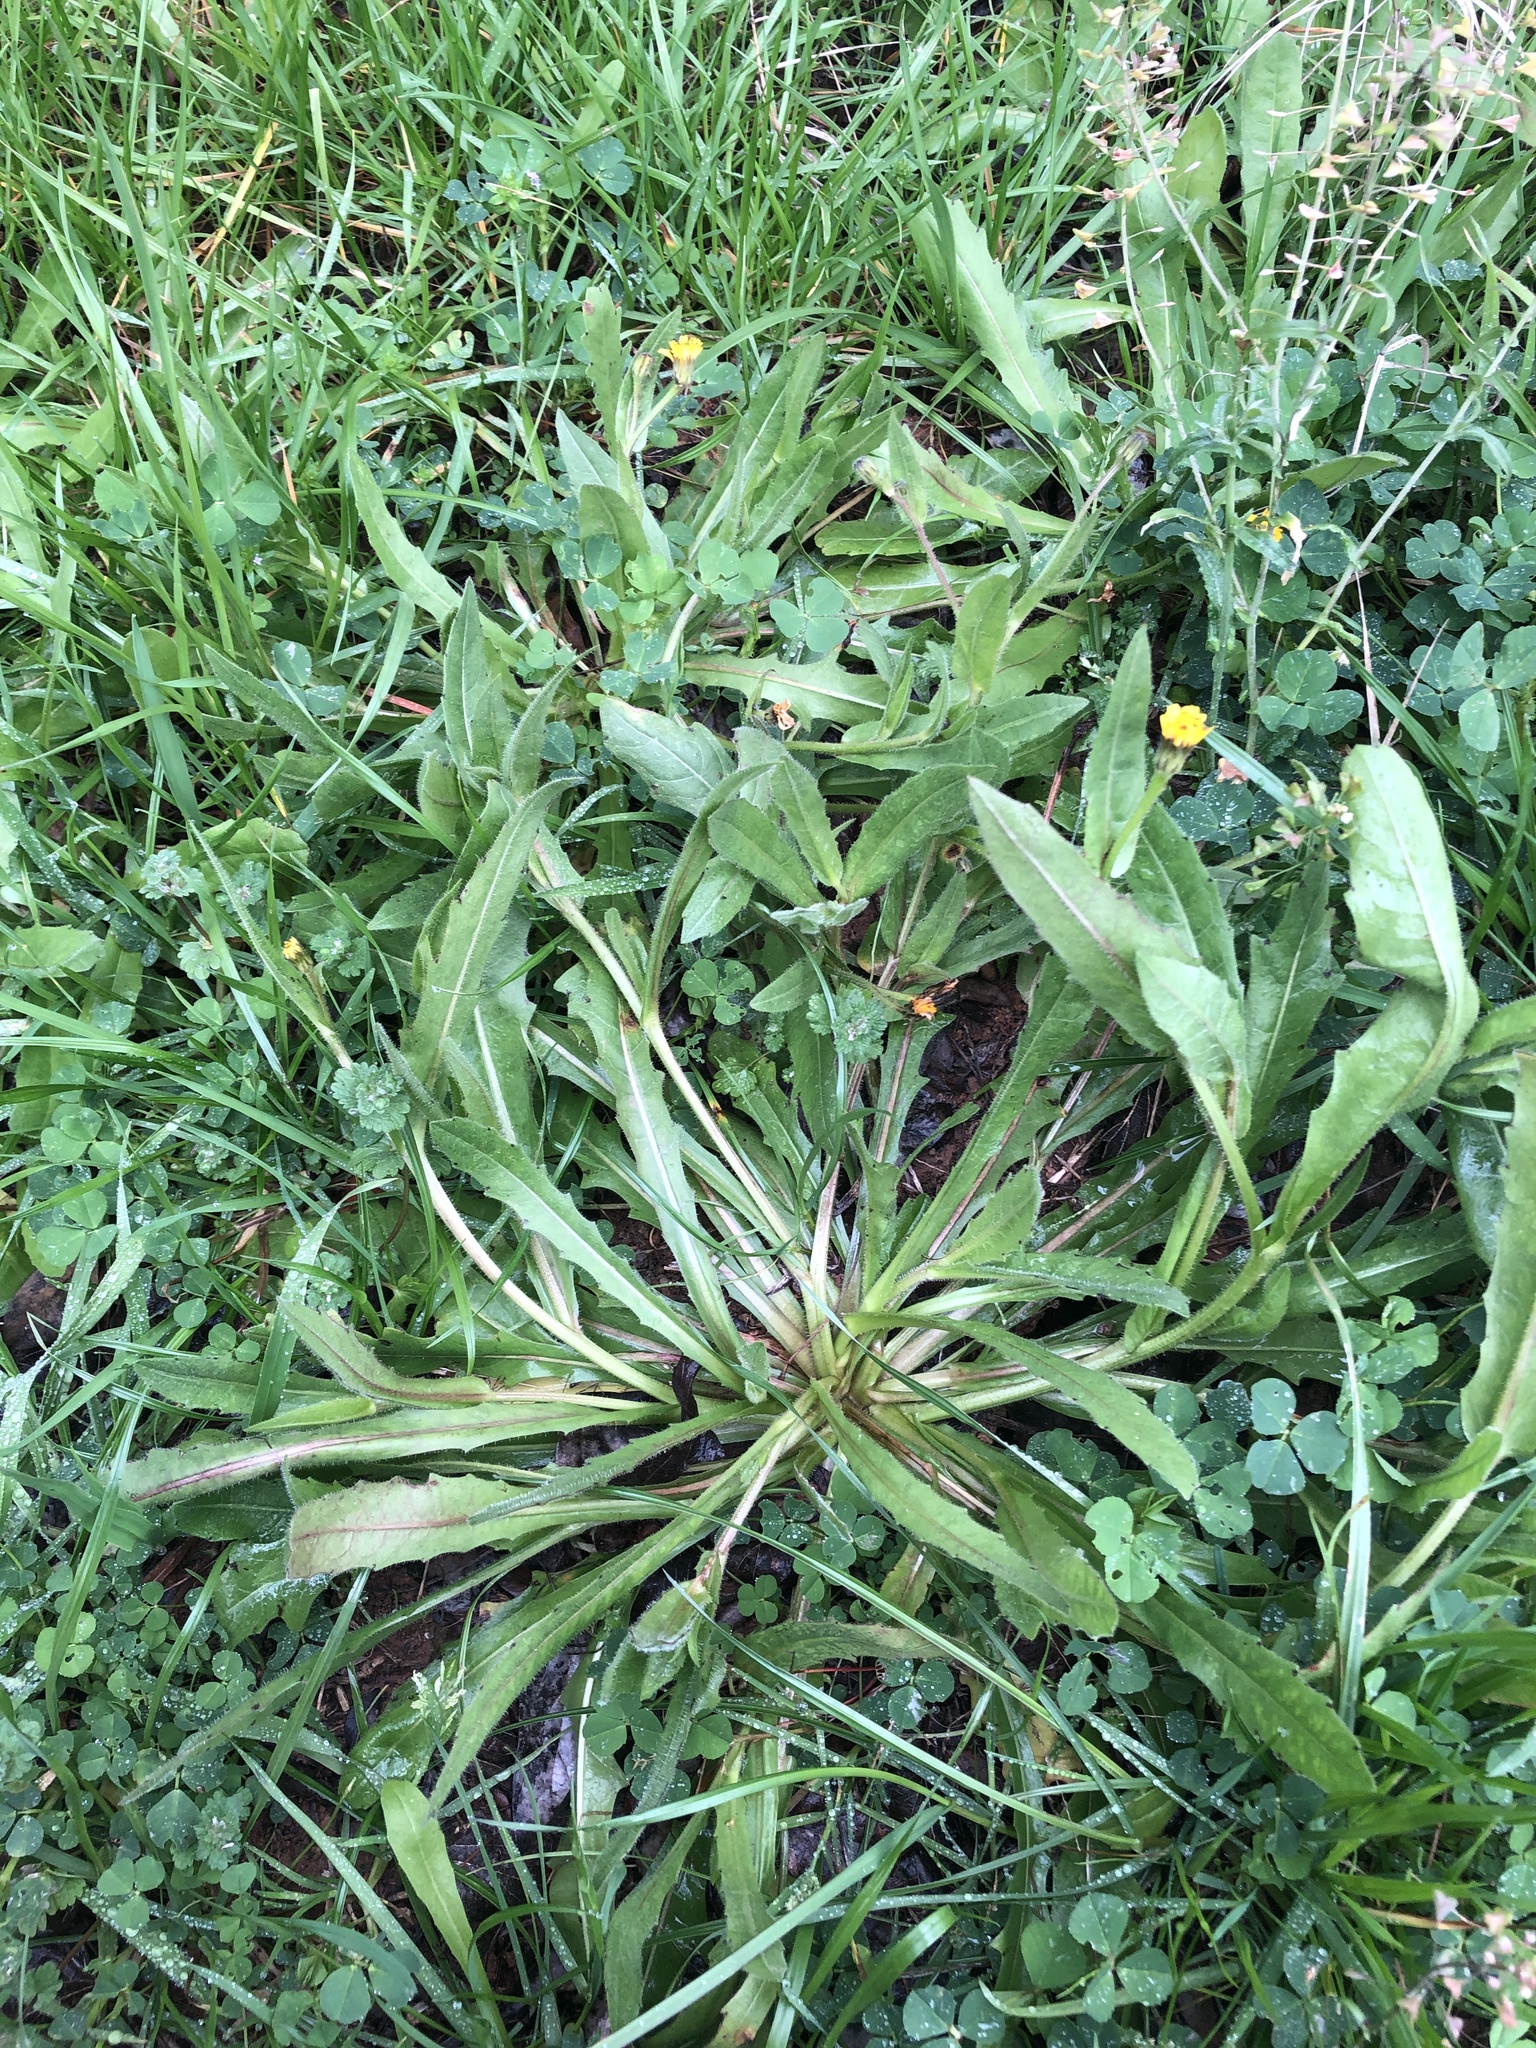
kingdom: Plantae
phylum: Tracheophyta
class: Magnoliopsida
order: Asterales
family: Asteraceae
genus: Hedypnois
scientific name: Hedypnois rhagadioloides
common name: Cretan weed
